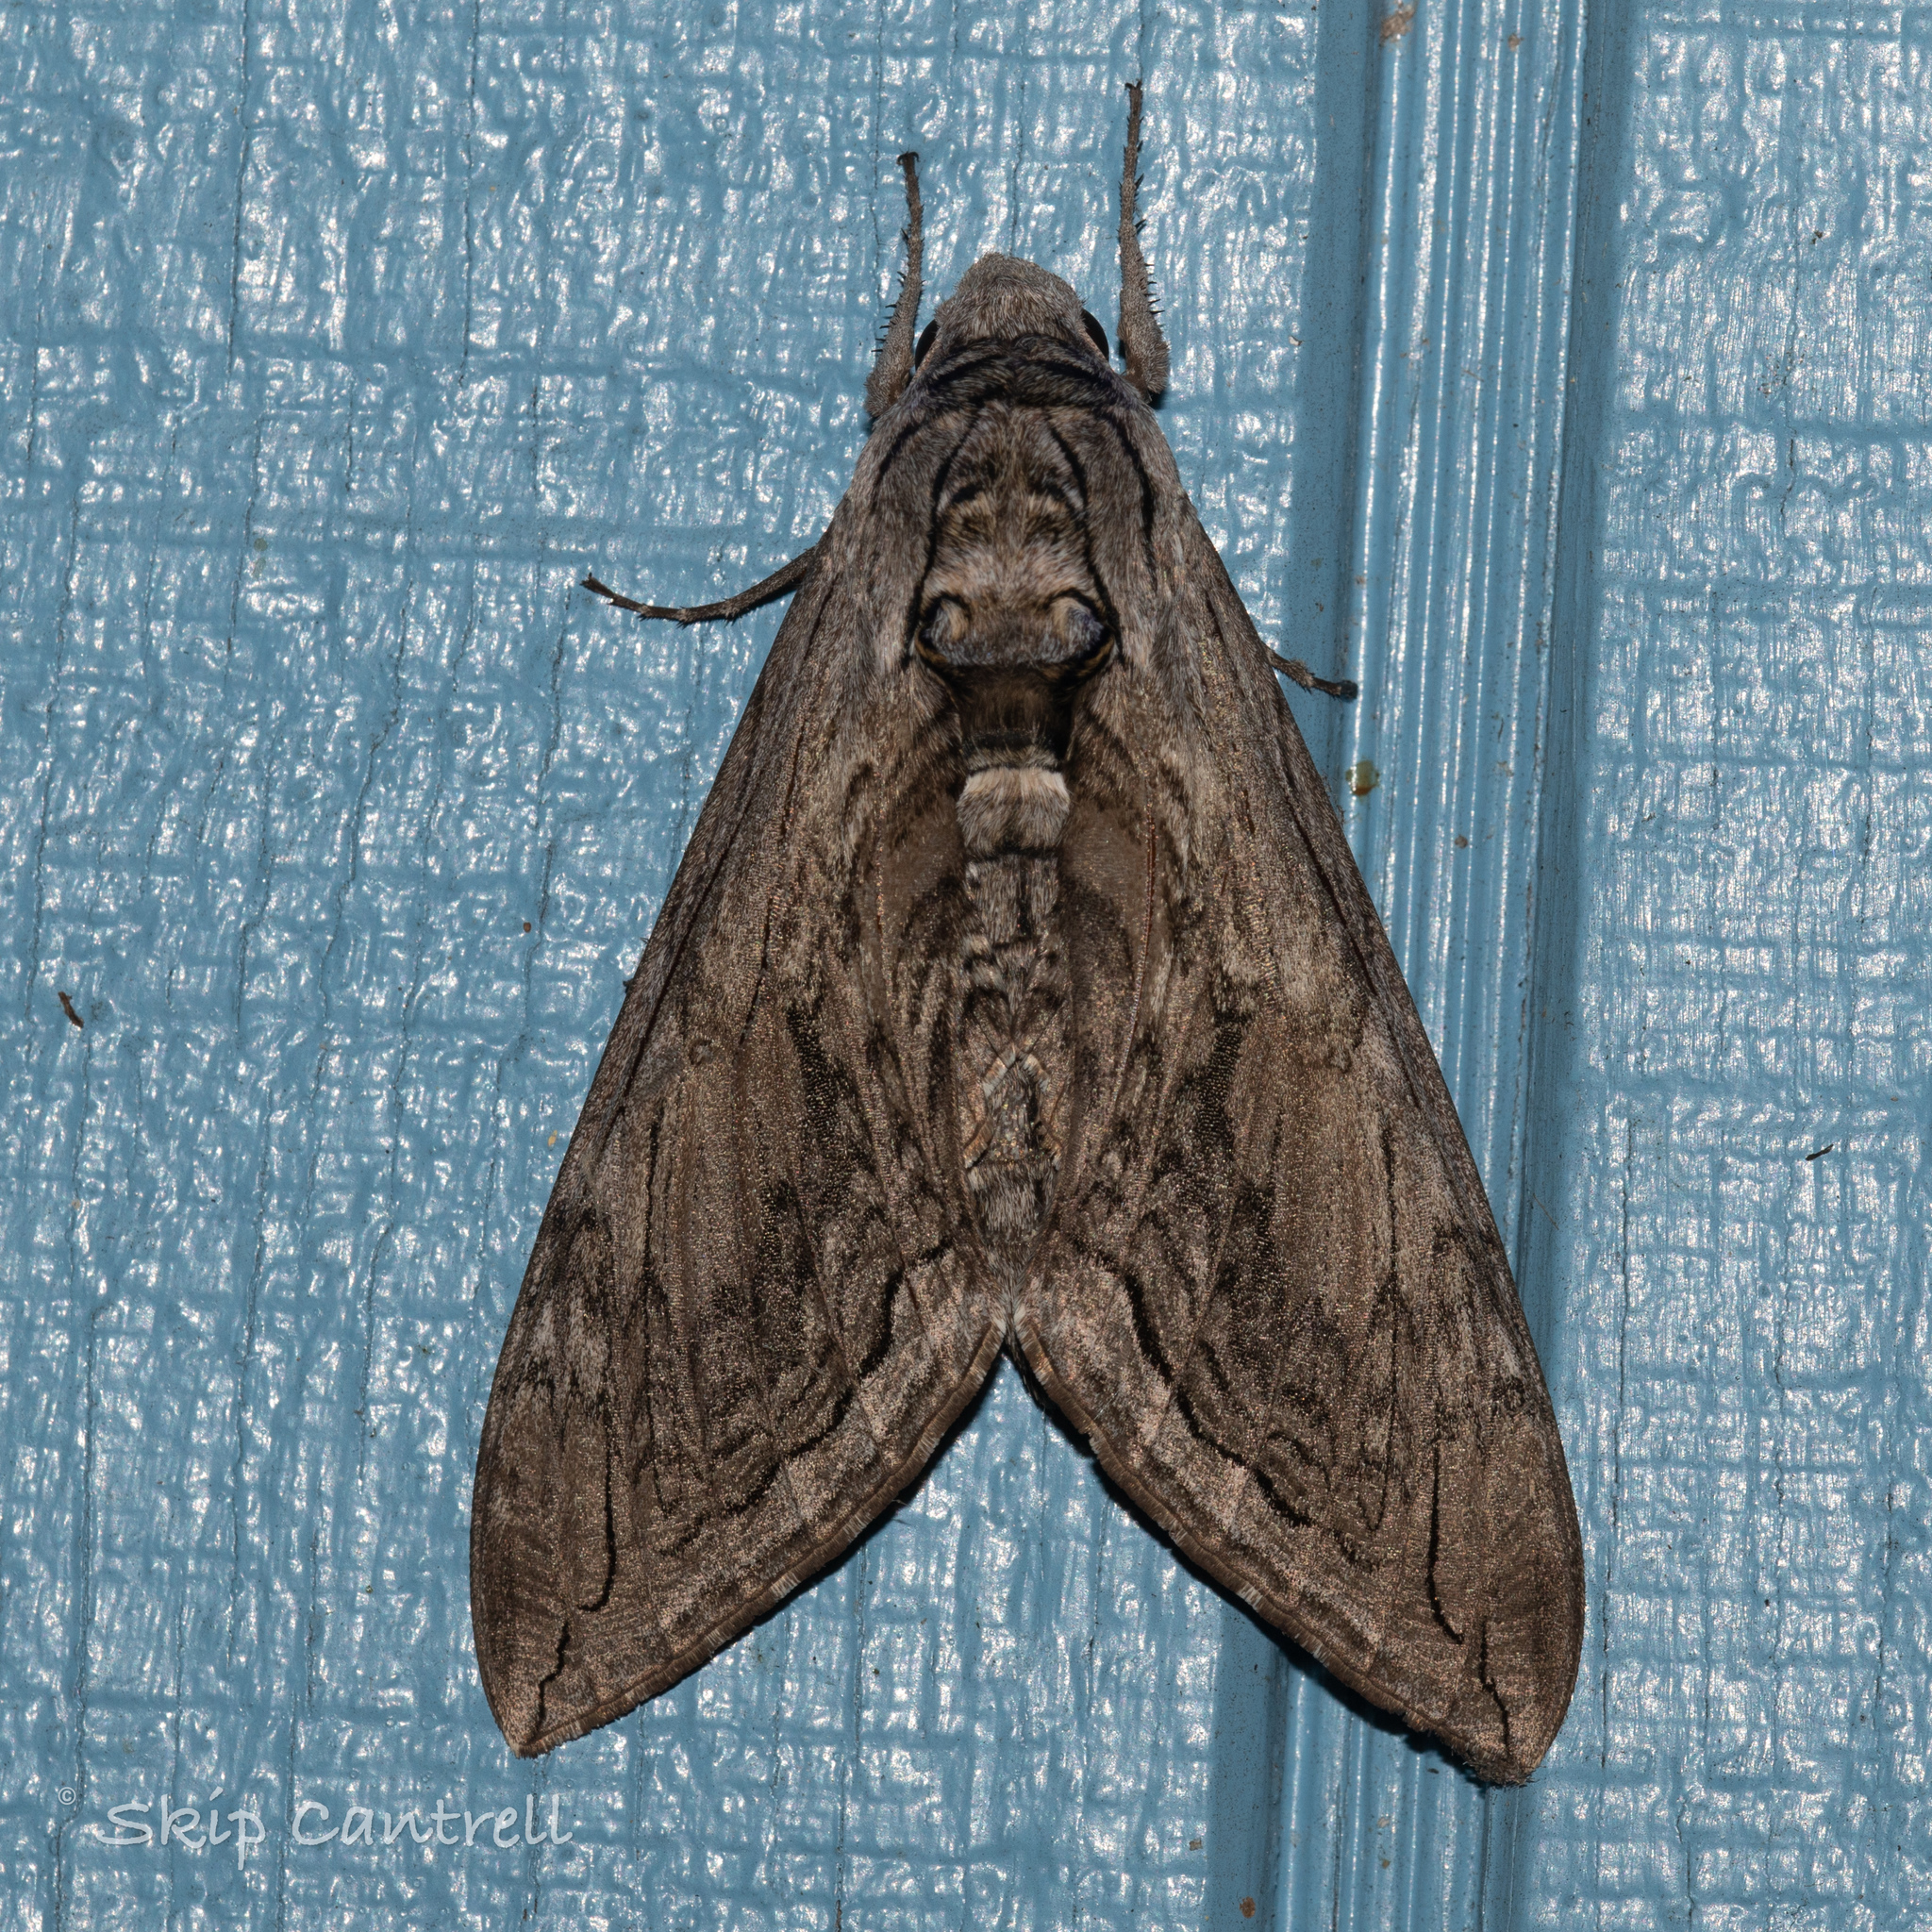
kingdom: Animalia
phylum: Arthropoda
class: Insecta
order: Lepidoptera
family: Sphingidae
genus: Manduca
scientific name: Manduca quinquemaculatus
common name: Five-spotted hawk-moth
